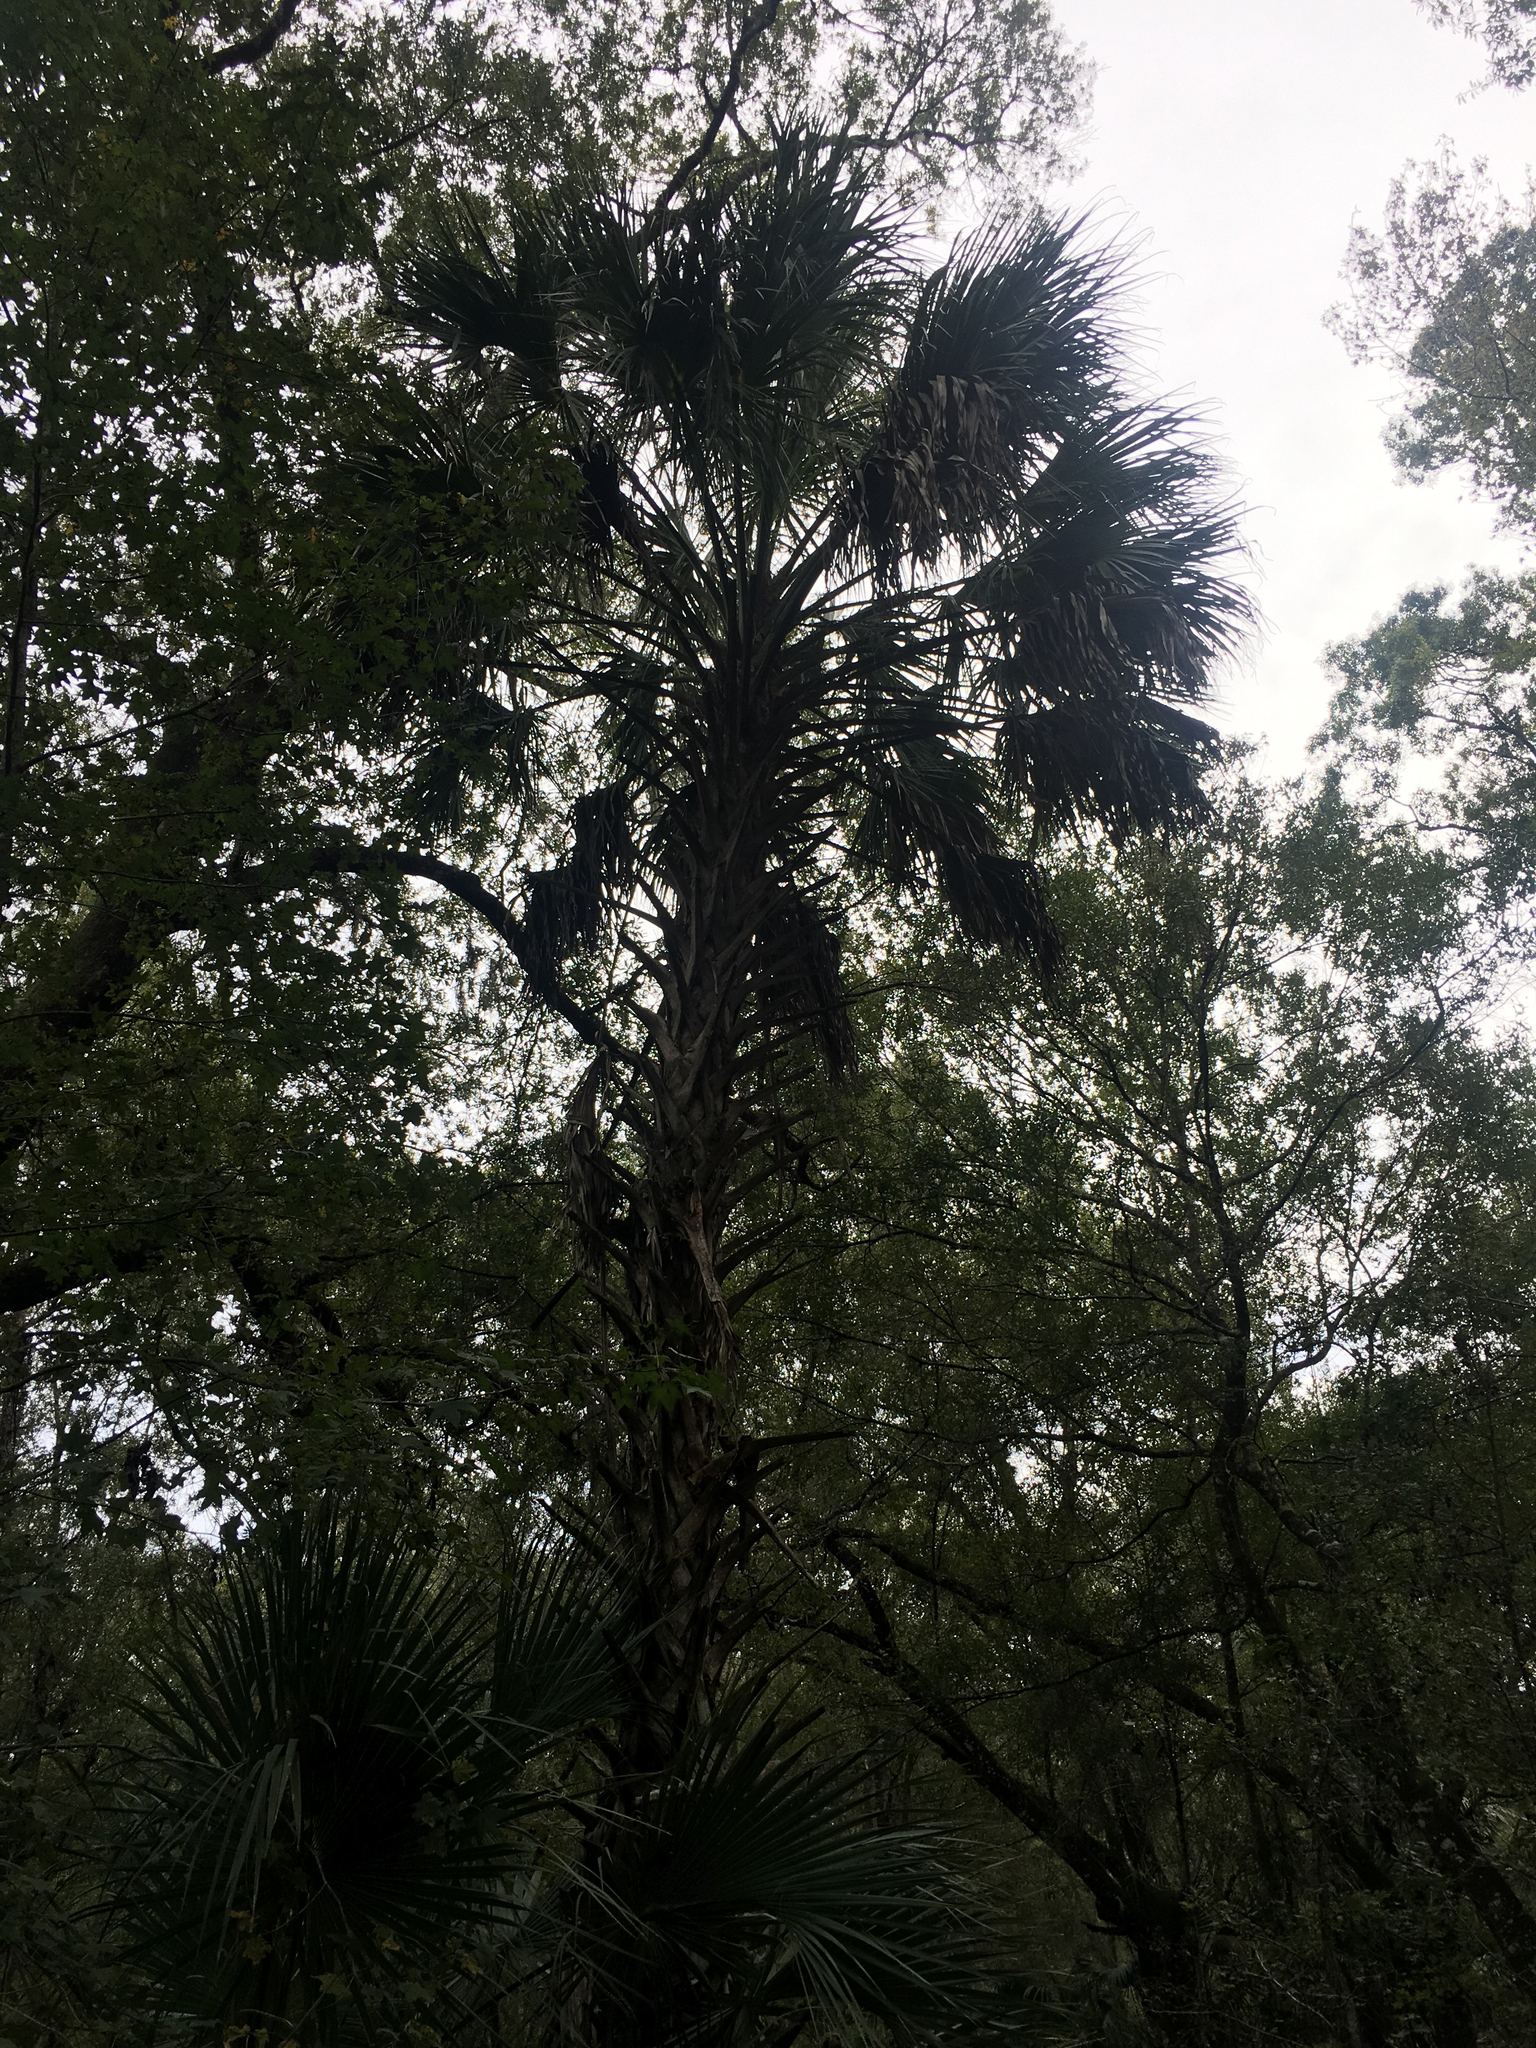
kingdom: Plantae
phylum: Tracheophyta
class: Liliopsida
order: Arecales
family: Arecaceae
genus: Sabal
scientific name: Sabal palmetto
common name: Blue palmetto
